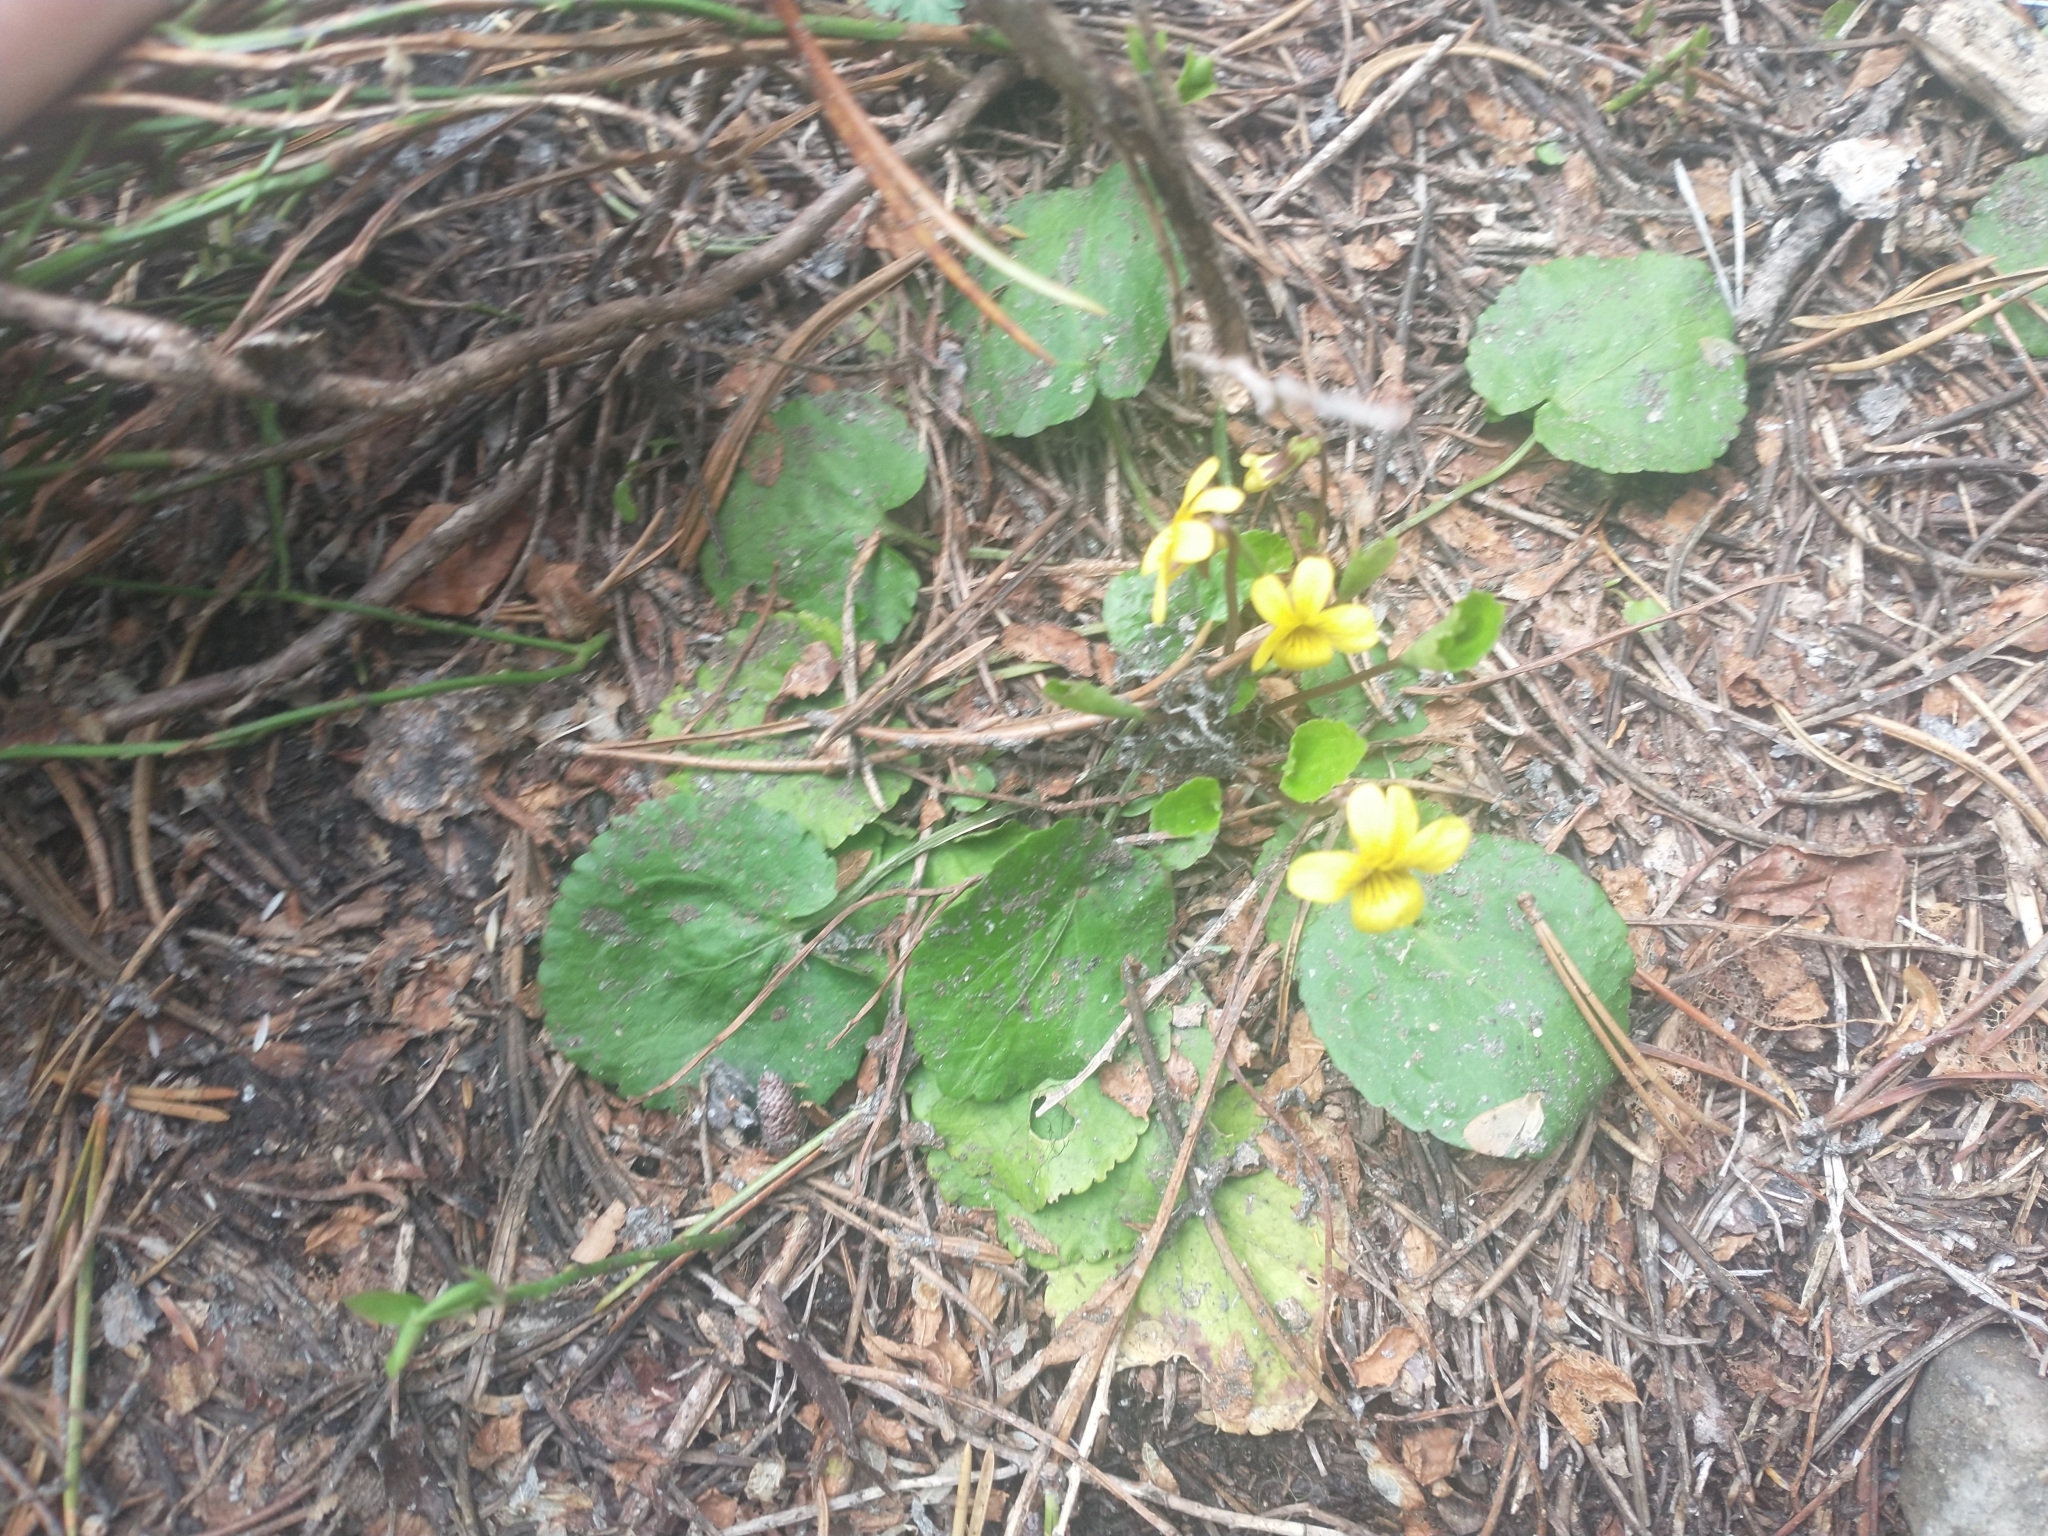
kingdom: Plantae
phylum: Tracheophyta
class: Magnoliopsida
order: Malpighiales
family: Violaceae
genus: Viola
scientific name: Viola orbiculata
